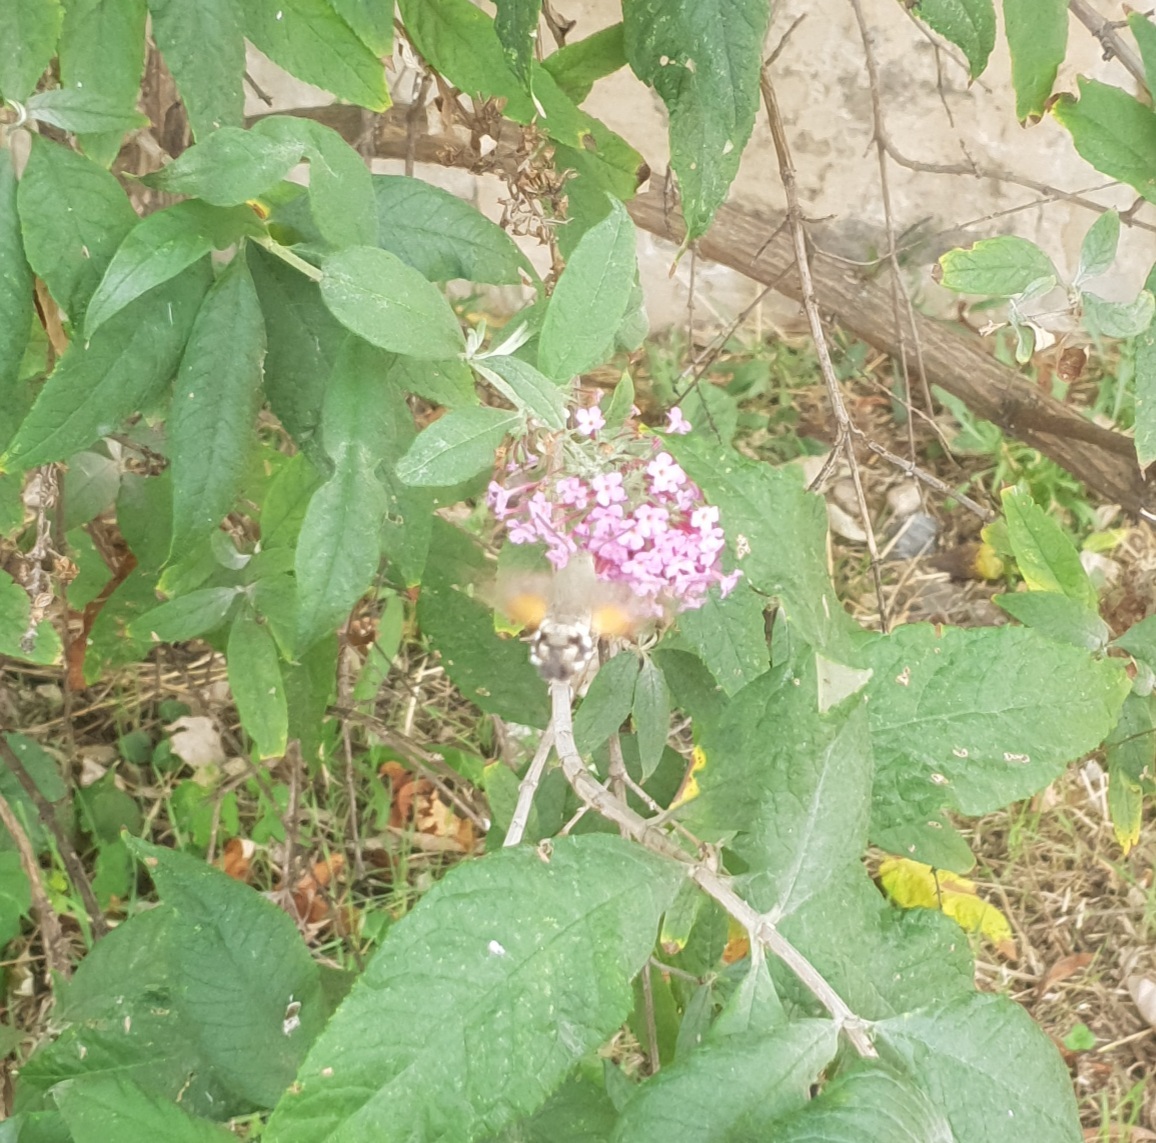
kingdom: Animalia
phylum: Arthropoda
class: Insecta
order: Lepidoptera
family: Sphingidae
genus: Macroglossum
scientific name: Macroglossum stellatarum
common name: Humming-bird hawk-moth
